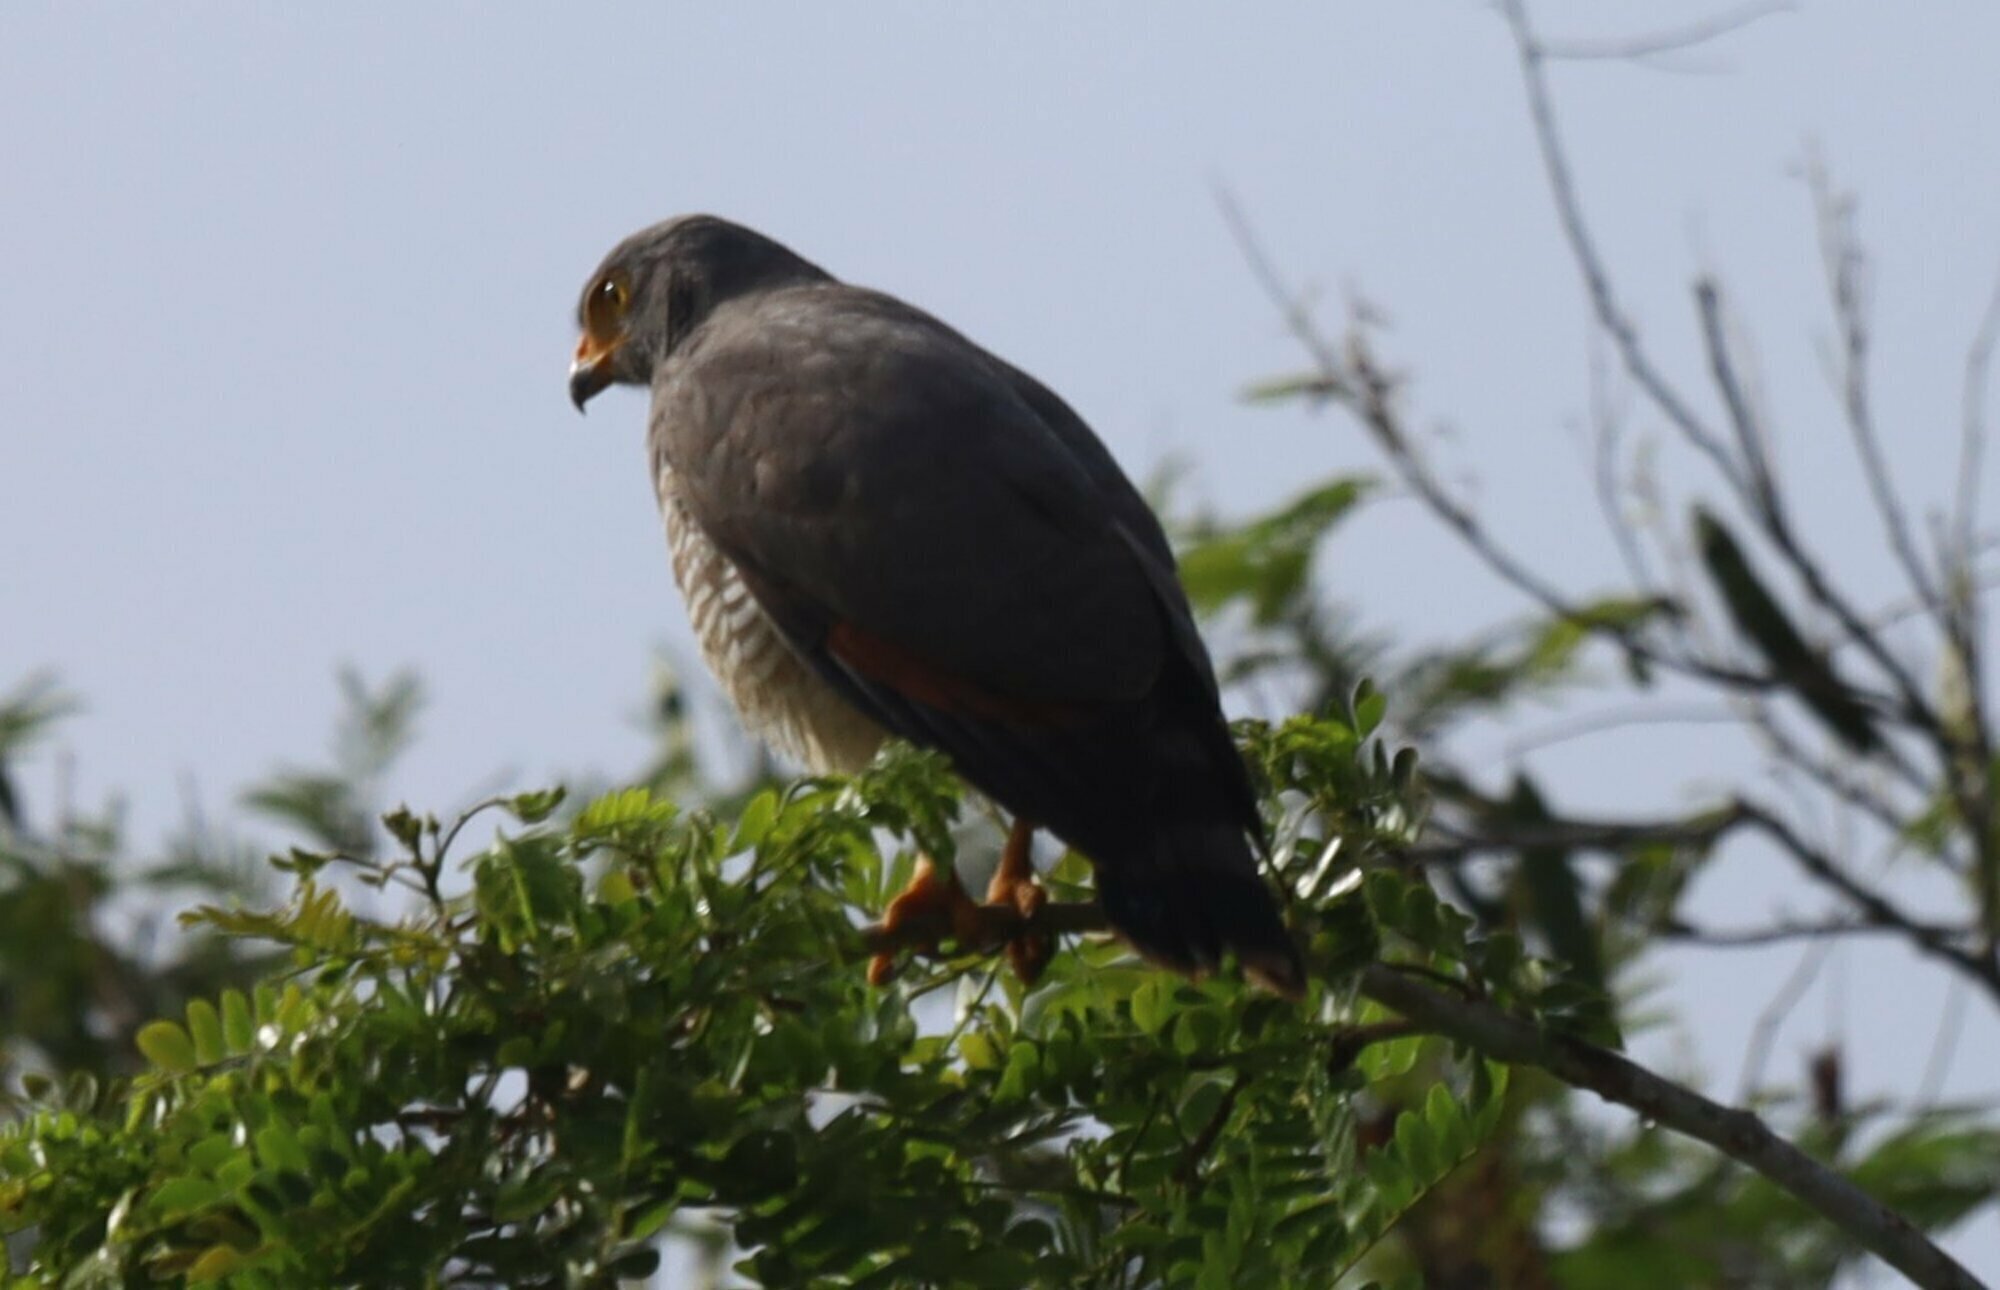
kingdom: Animalia
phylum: Chordata
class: Aves
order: Accipitriformes
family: Accipitridae
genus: Rupornis
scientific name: Rupornis magnirostris
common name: Roadside hawk
